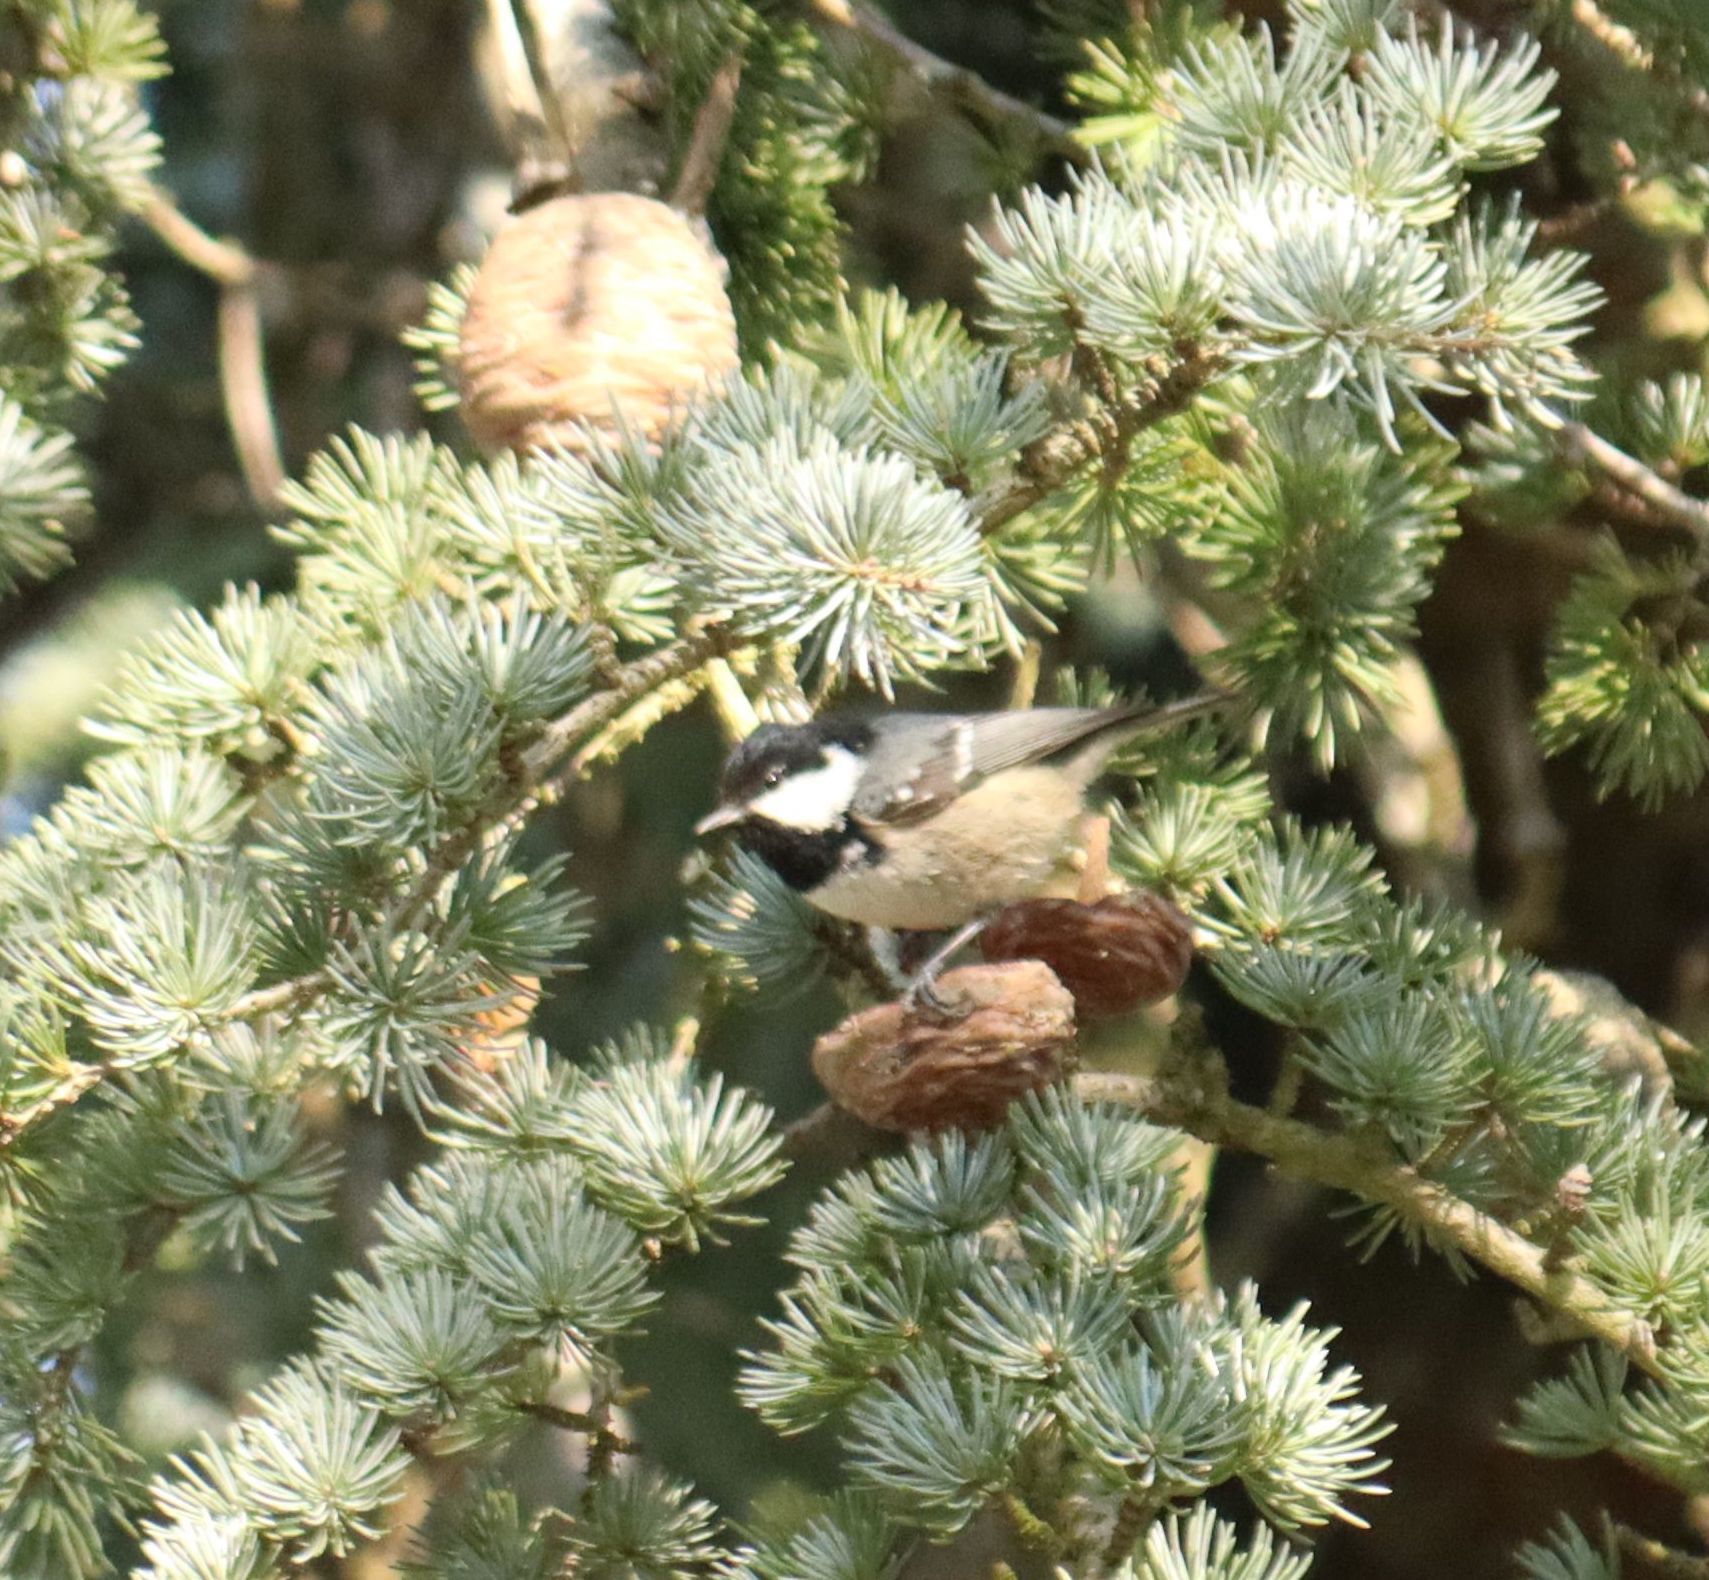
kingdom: Animalia
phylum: Chordata
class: Aves
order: Passeriformes
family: Paridae
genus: Periparus
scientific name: Periparus ater
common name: Coal tit
